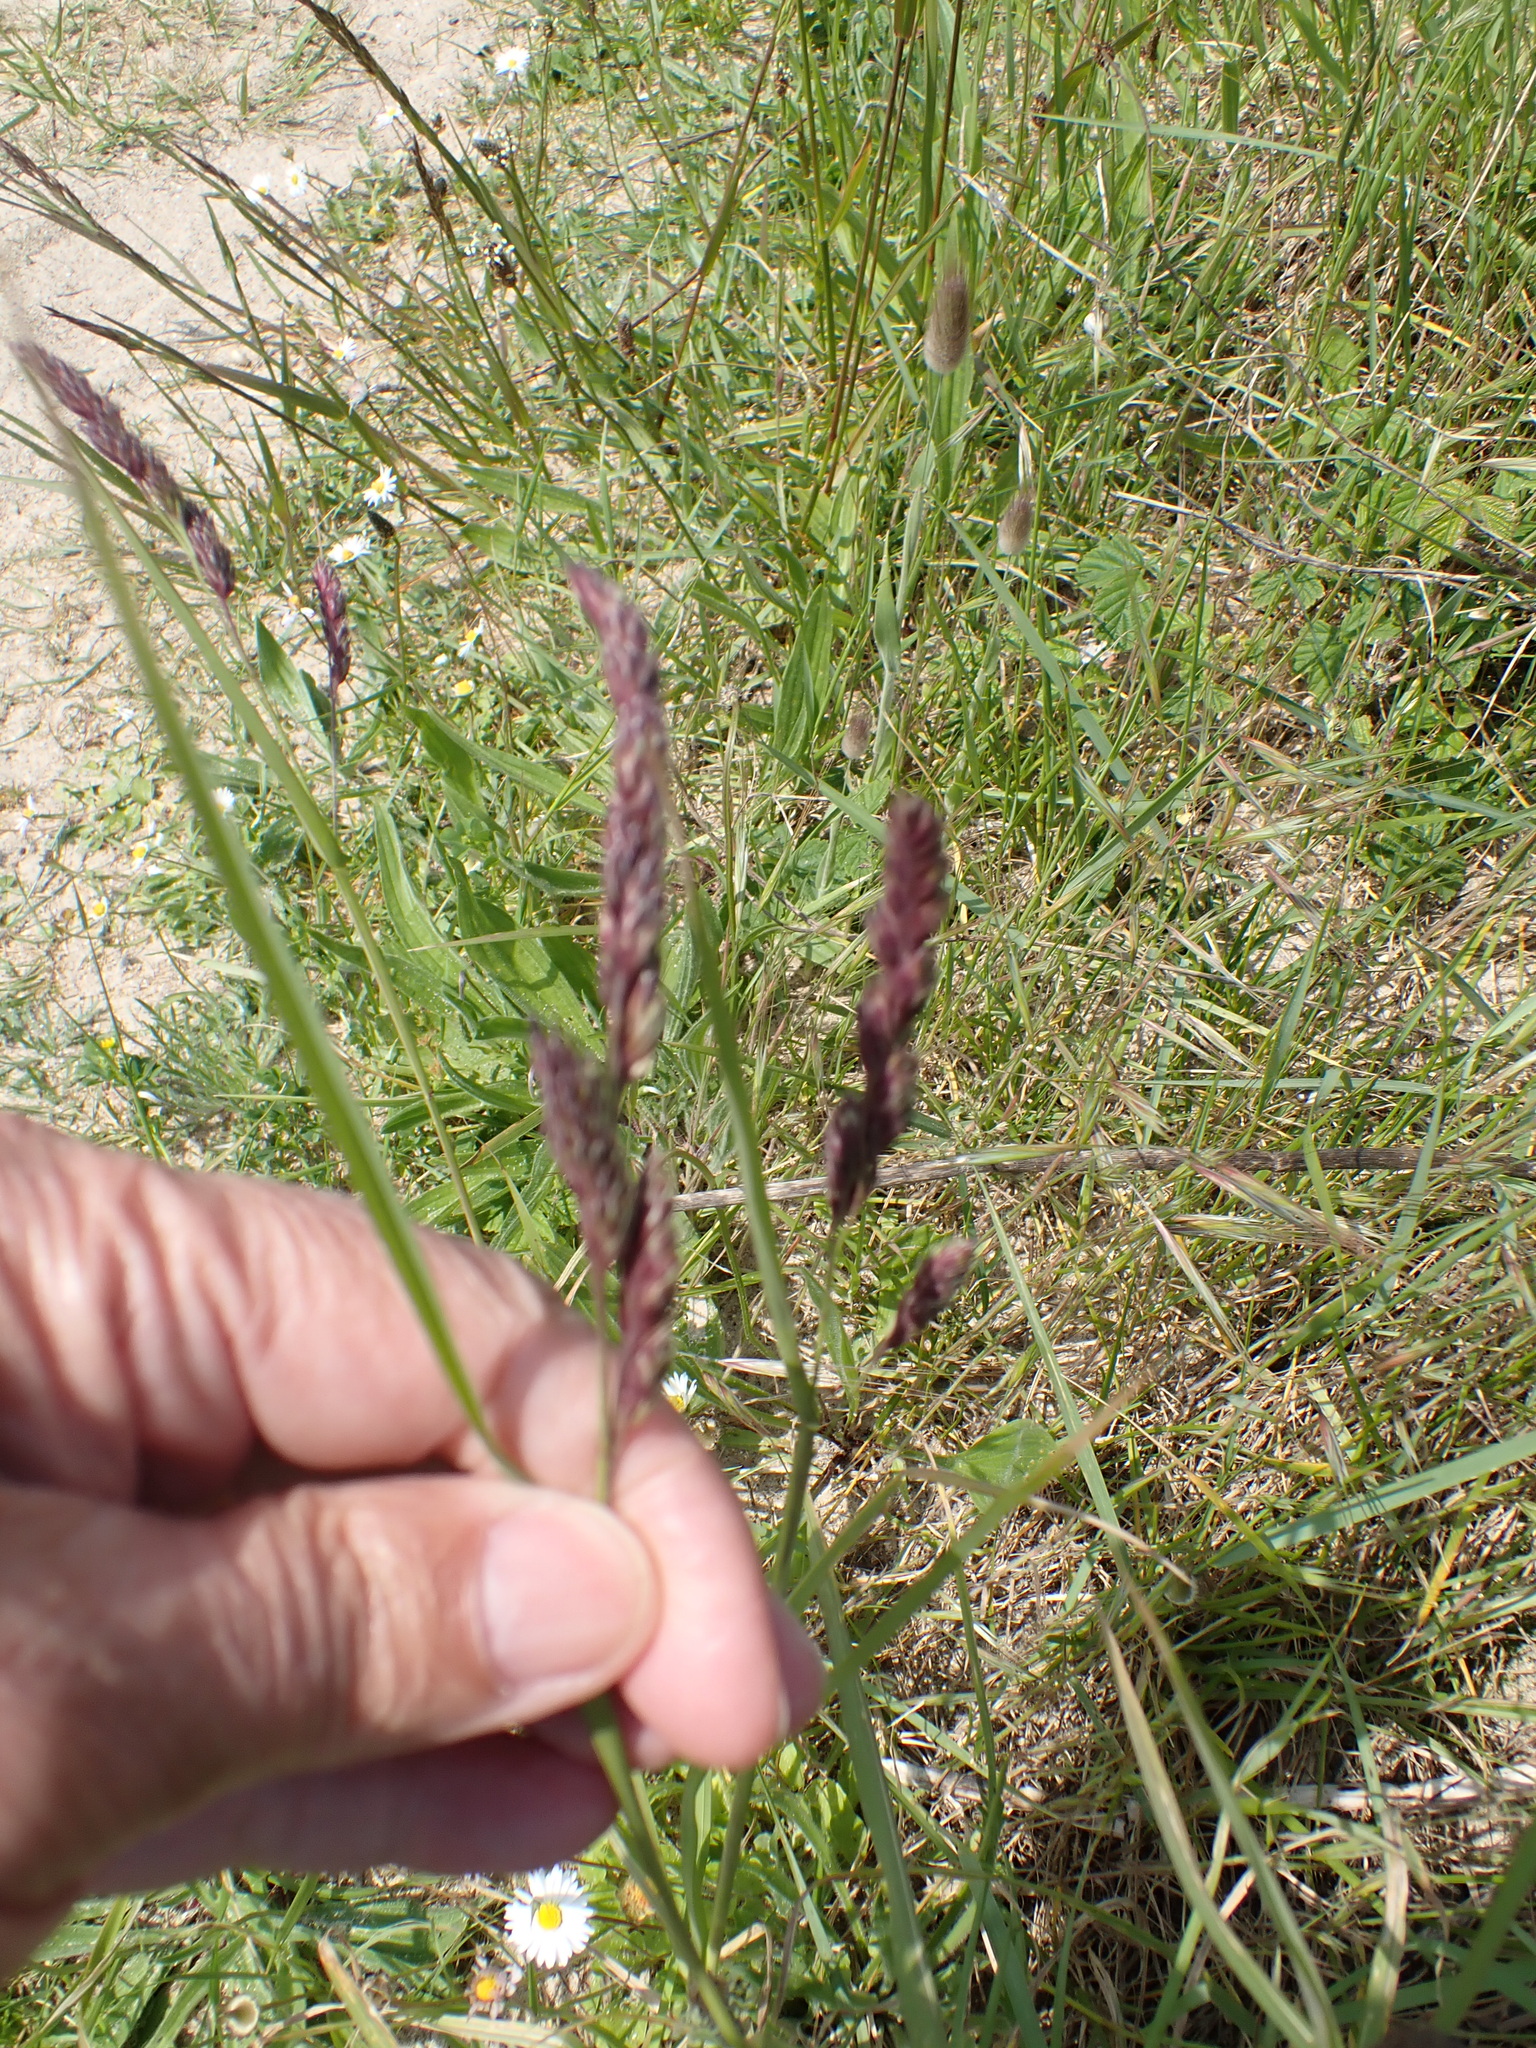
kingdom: Plantae
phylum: Tracheophyta
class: Liliopsida
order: Poales
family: Poaceae
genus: Dactylis
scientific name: Dactylis glomerata
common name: Orchardgrass
